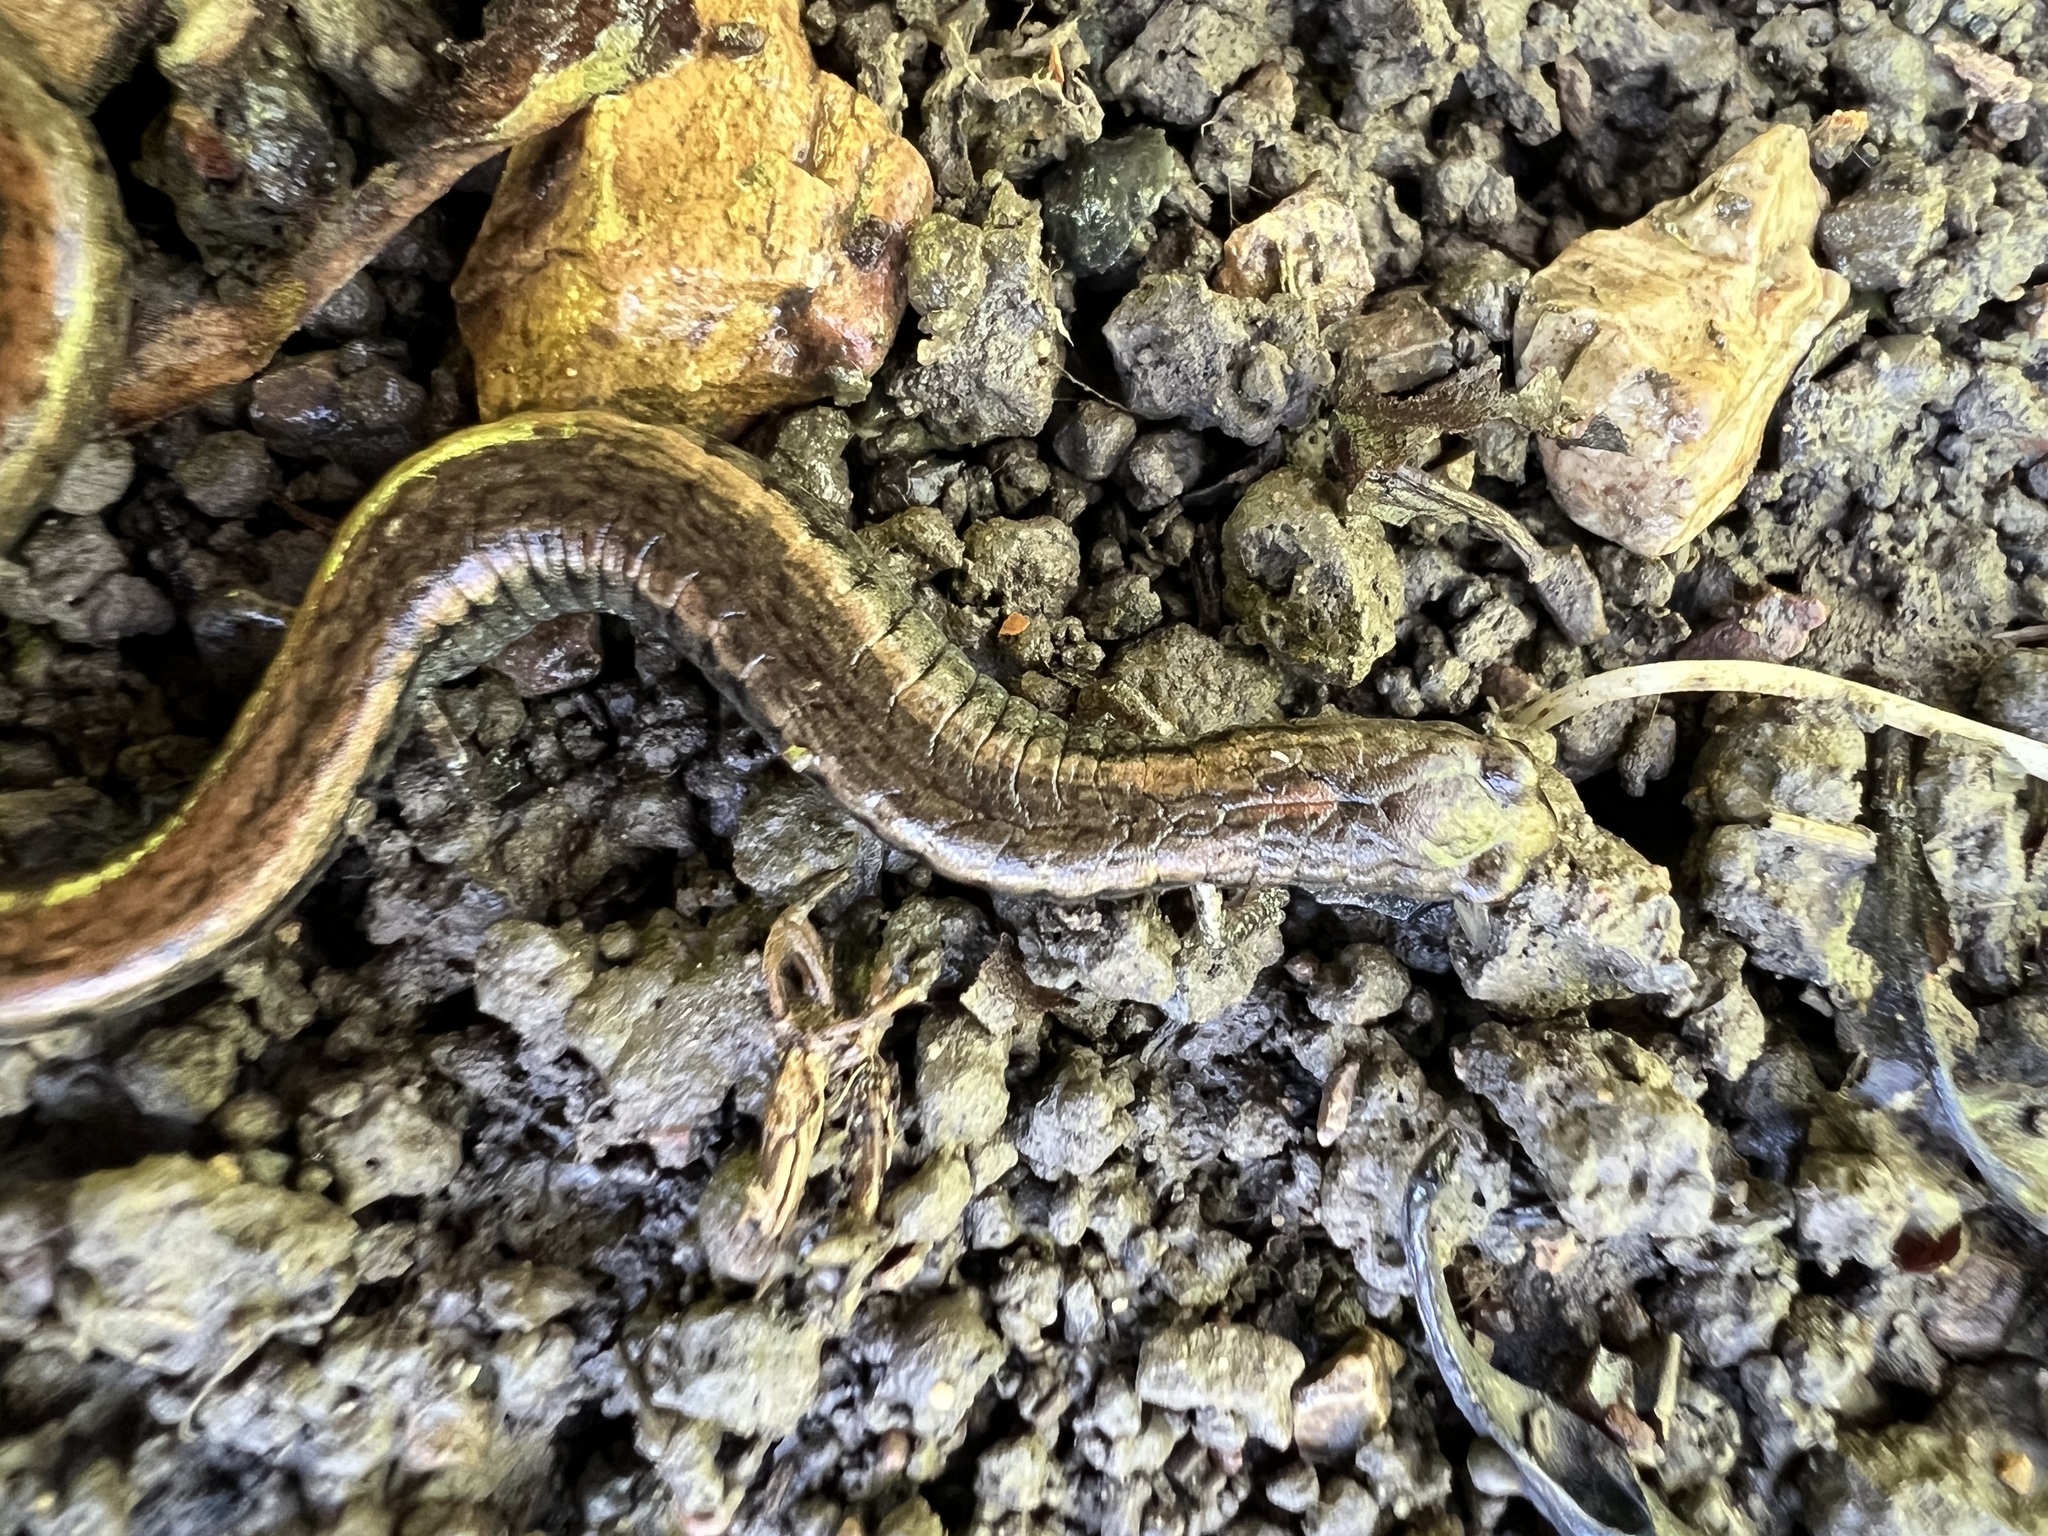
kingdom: Animalia
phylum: Chordata
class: Amphibia
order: Caudata
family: Plethodontidae
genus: Batrachoseps
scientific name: Batrachoseps nigriventris
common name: Black-bellied slender salamander
